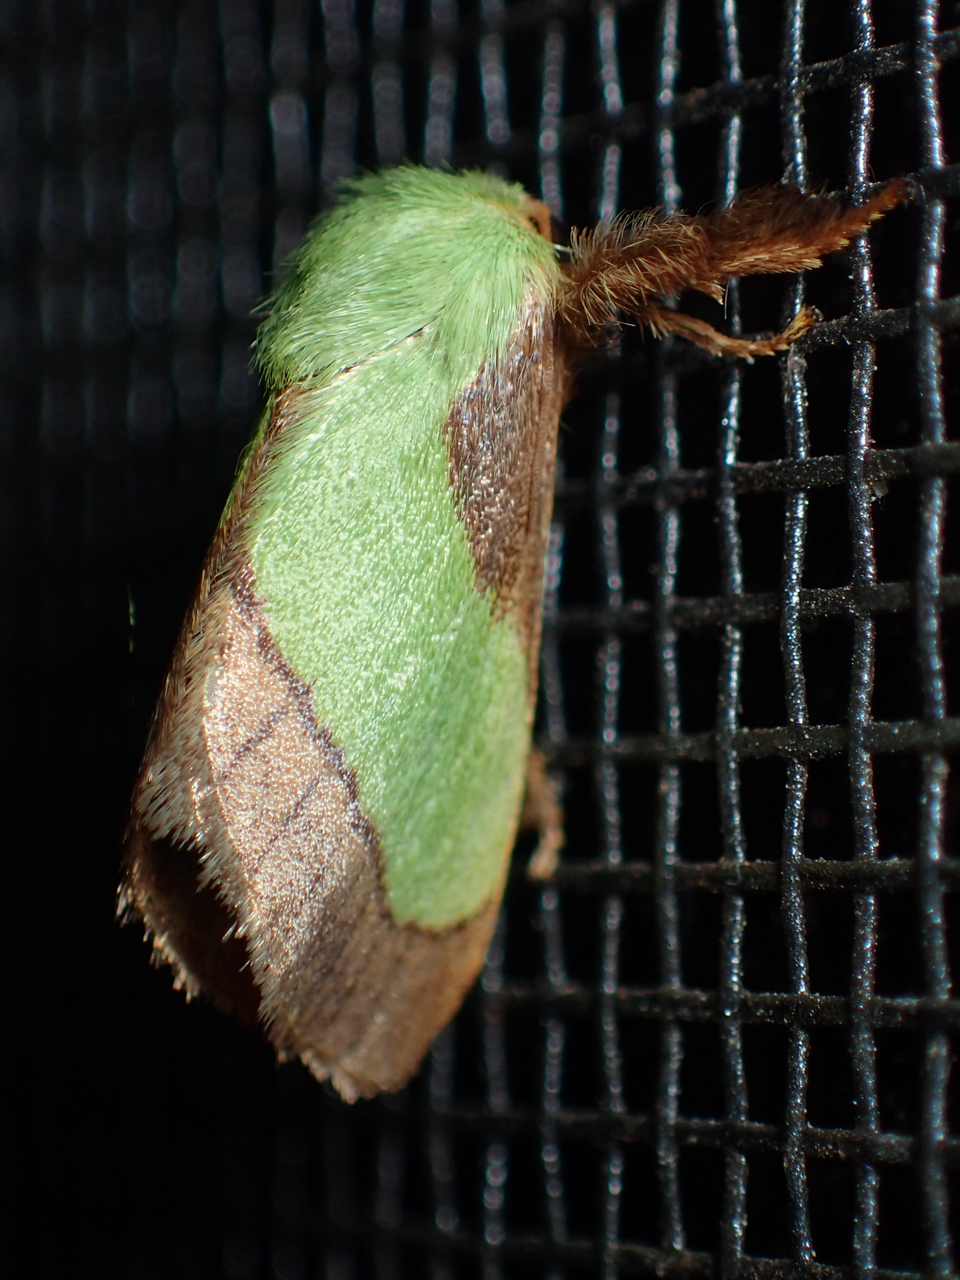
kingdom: Animalia
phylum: Arthropoda
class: Insecta
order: Lepidoptera
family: Limacodidae
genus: Parasa
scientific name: Parasa chloris
